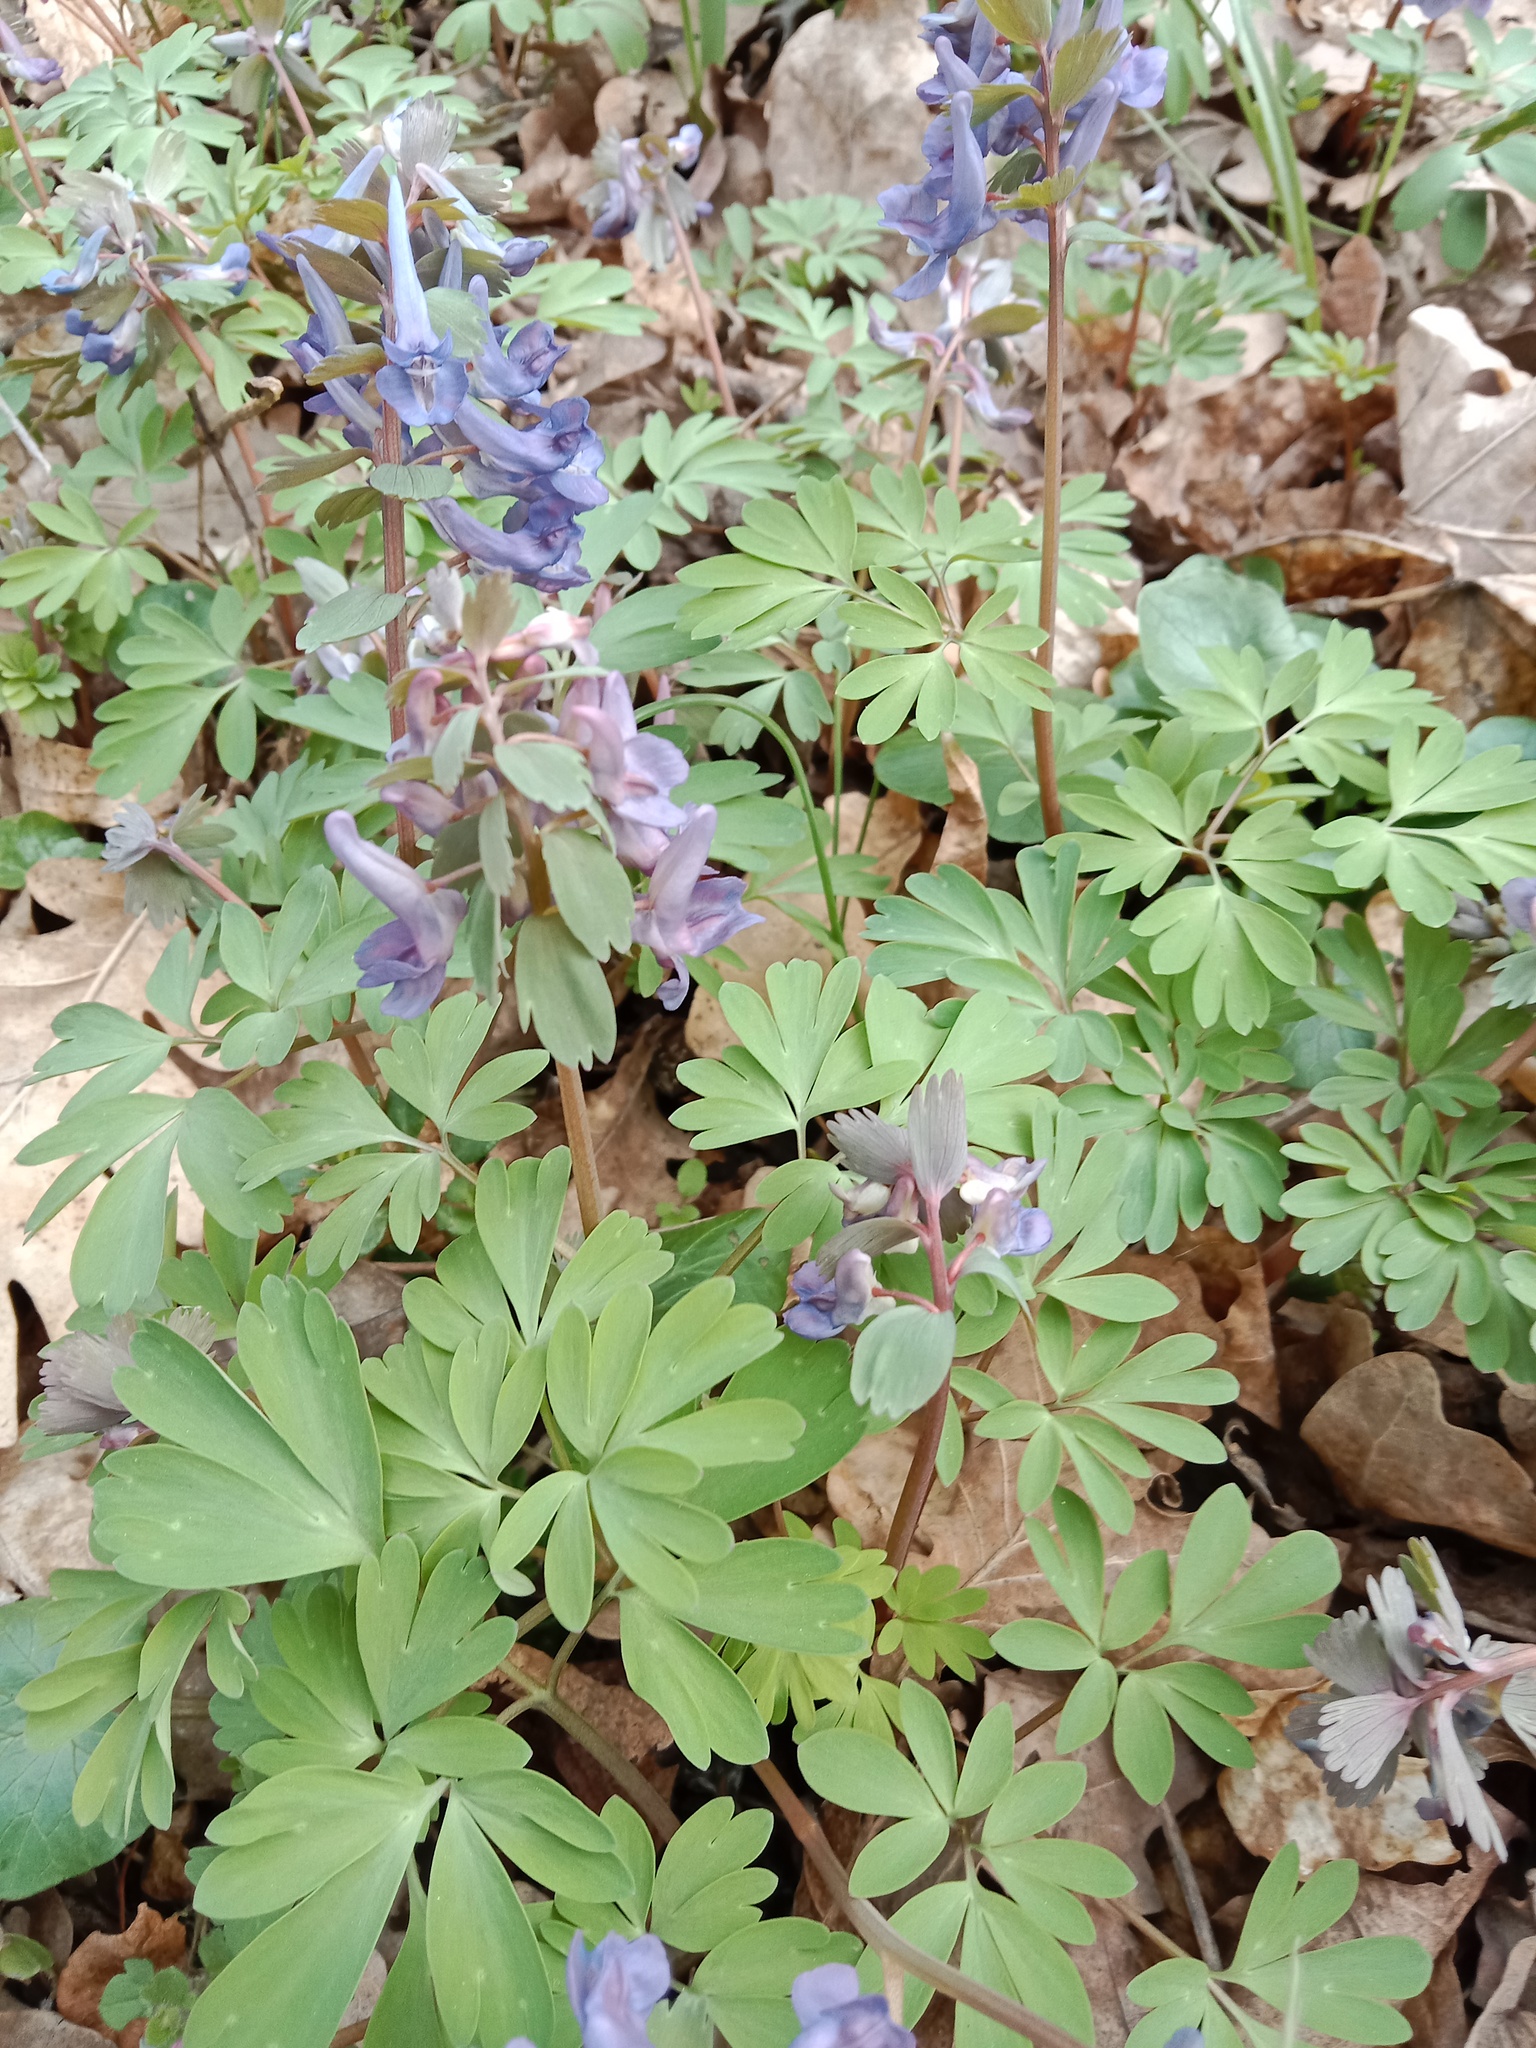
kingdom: Plantae
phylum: Tracheophyta
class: Magnoliopsida
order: Ranunculales
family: Papaveraceae
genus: Corydalis
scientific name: Corydalis solida
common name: Bird-in-a-bush
